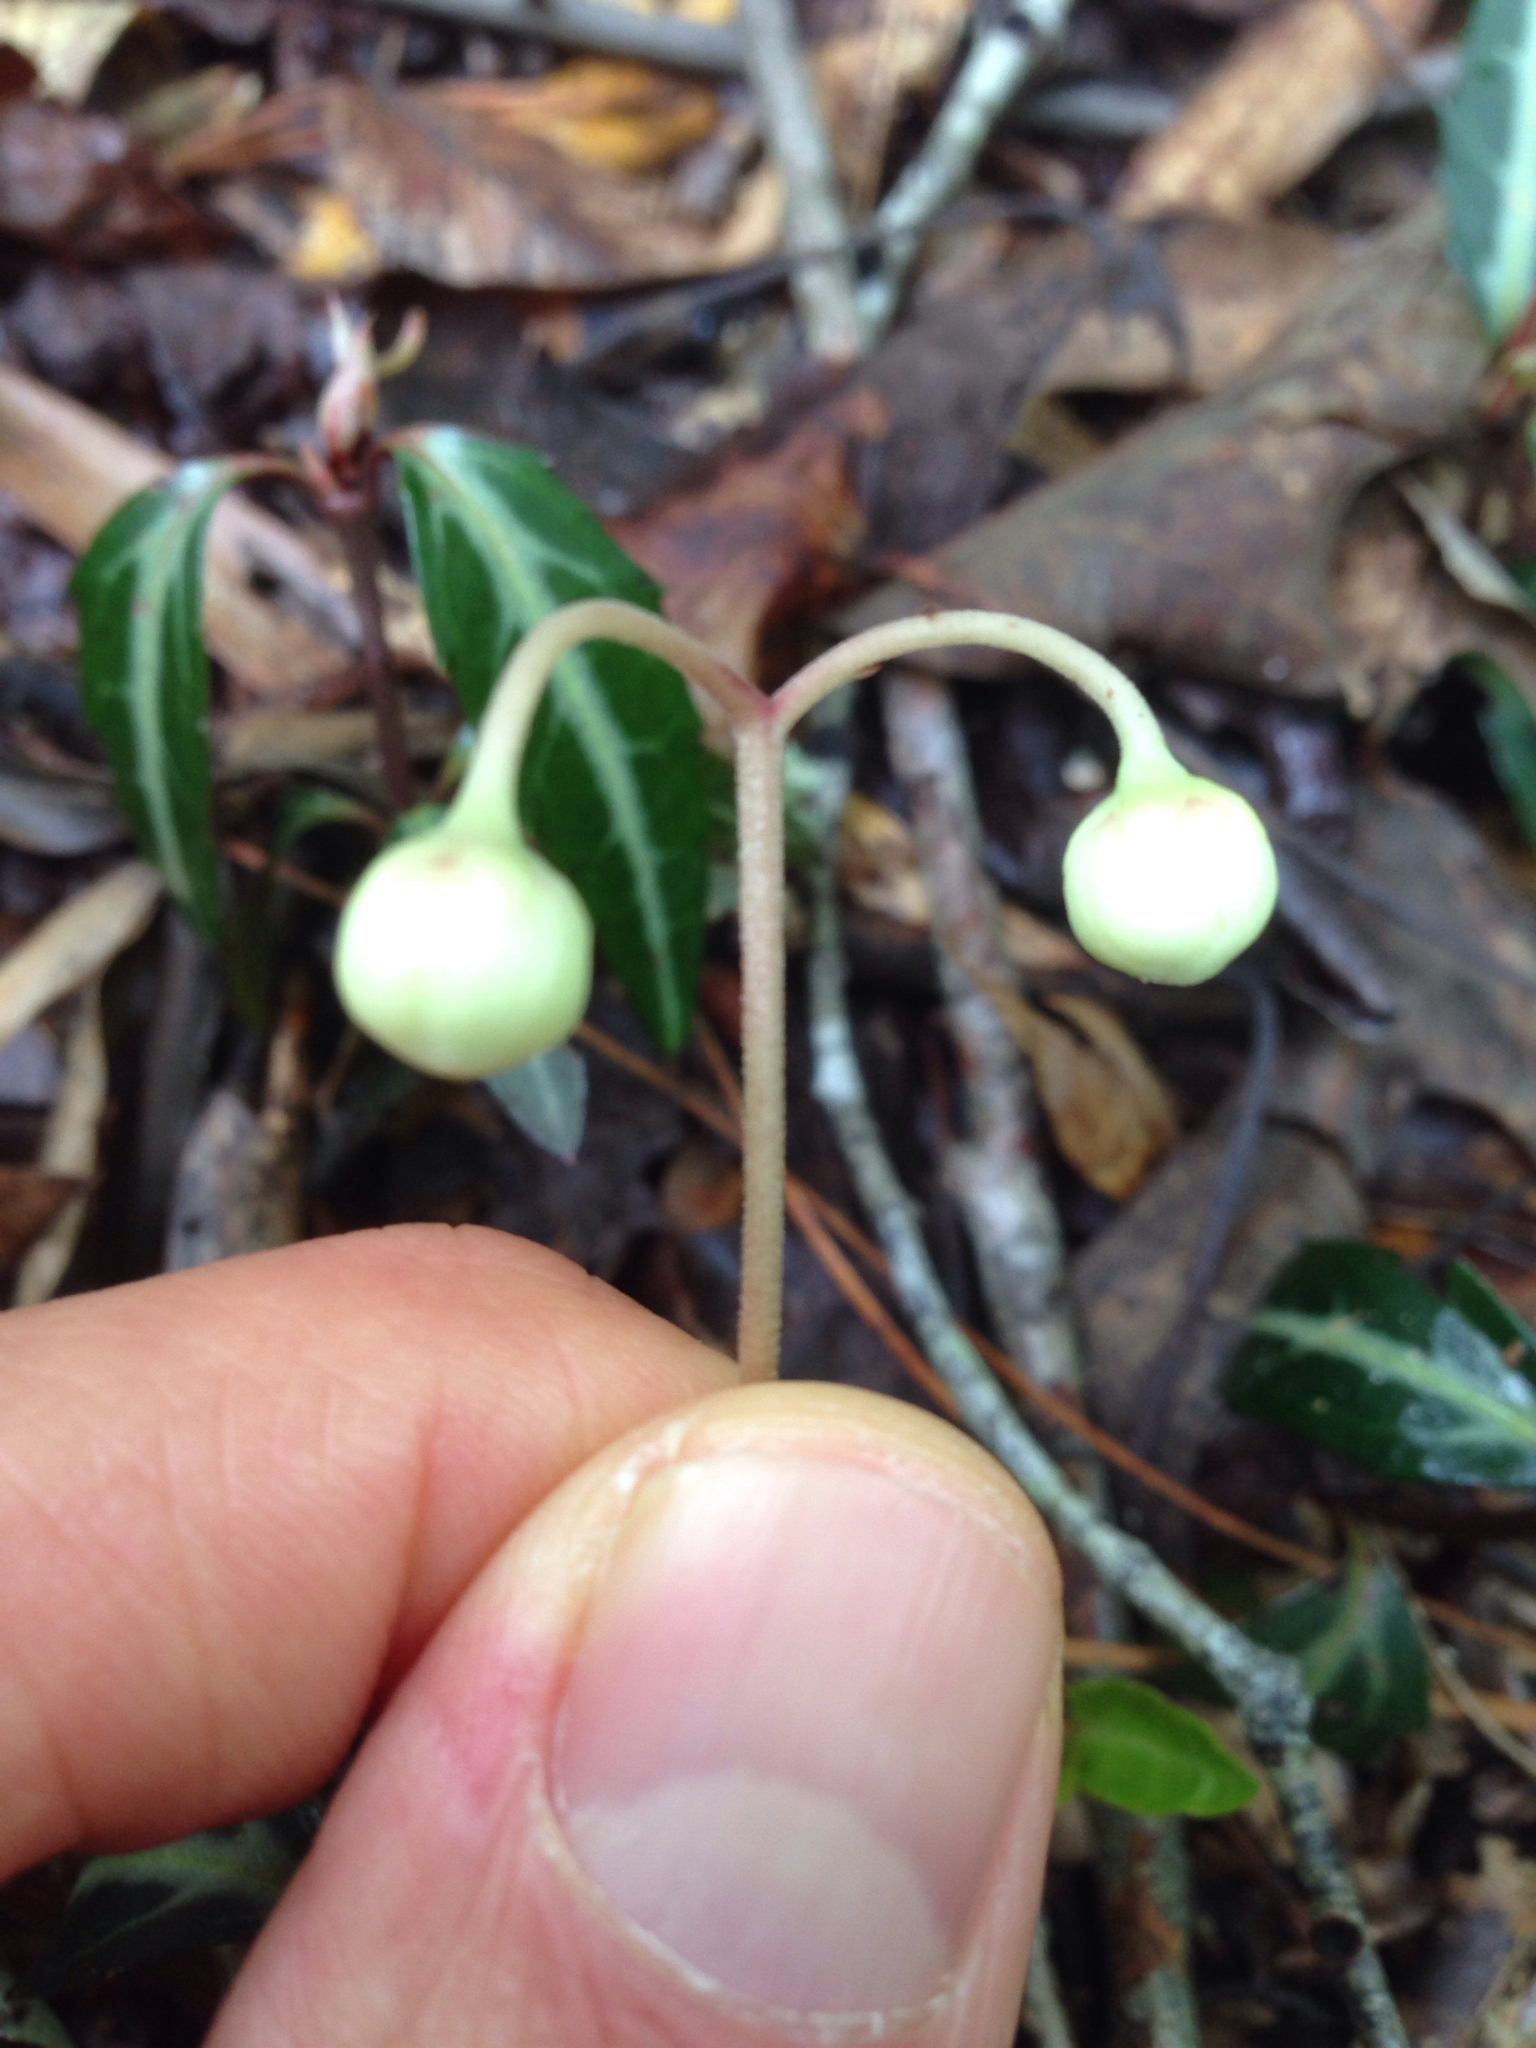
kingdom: Plantae
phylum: Tracheophyta
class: Magnoliopsida
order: Ericales
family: Ericaceae
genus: Chimaphila
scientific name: Chimaphila maculata
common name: Spotted pipsissewa
